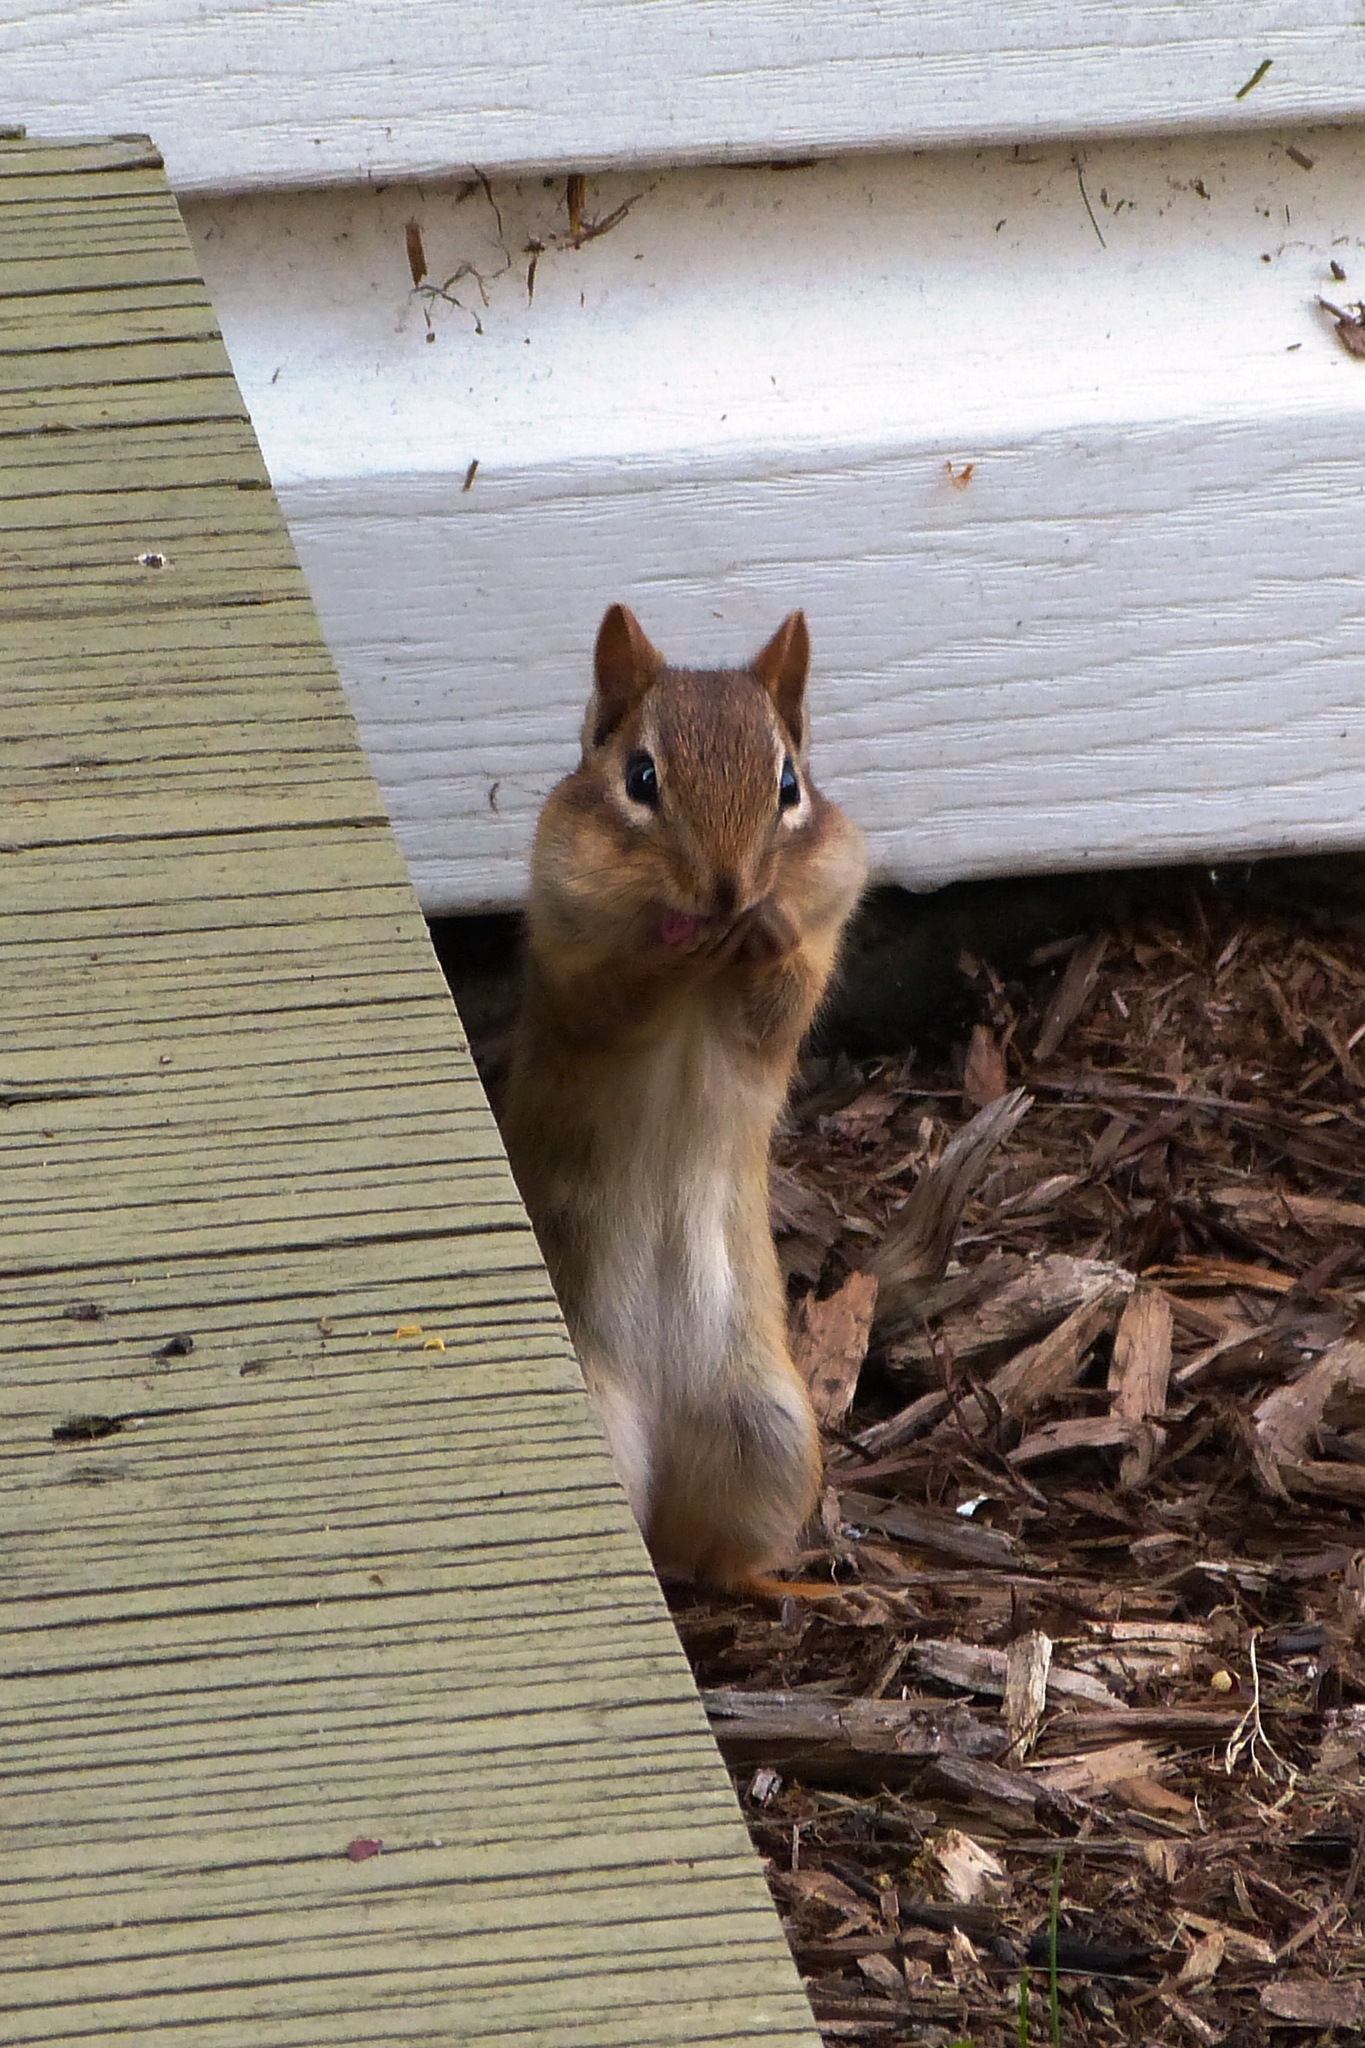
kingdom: Animalia
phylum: Chordata
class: Mammalia
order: Rodentia
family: Sciuridae
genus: Tamias
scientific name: Tamias striatus
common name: Eastern chipmunk
